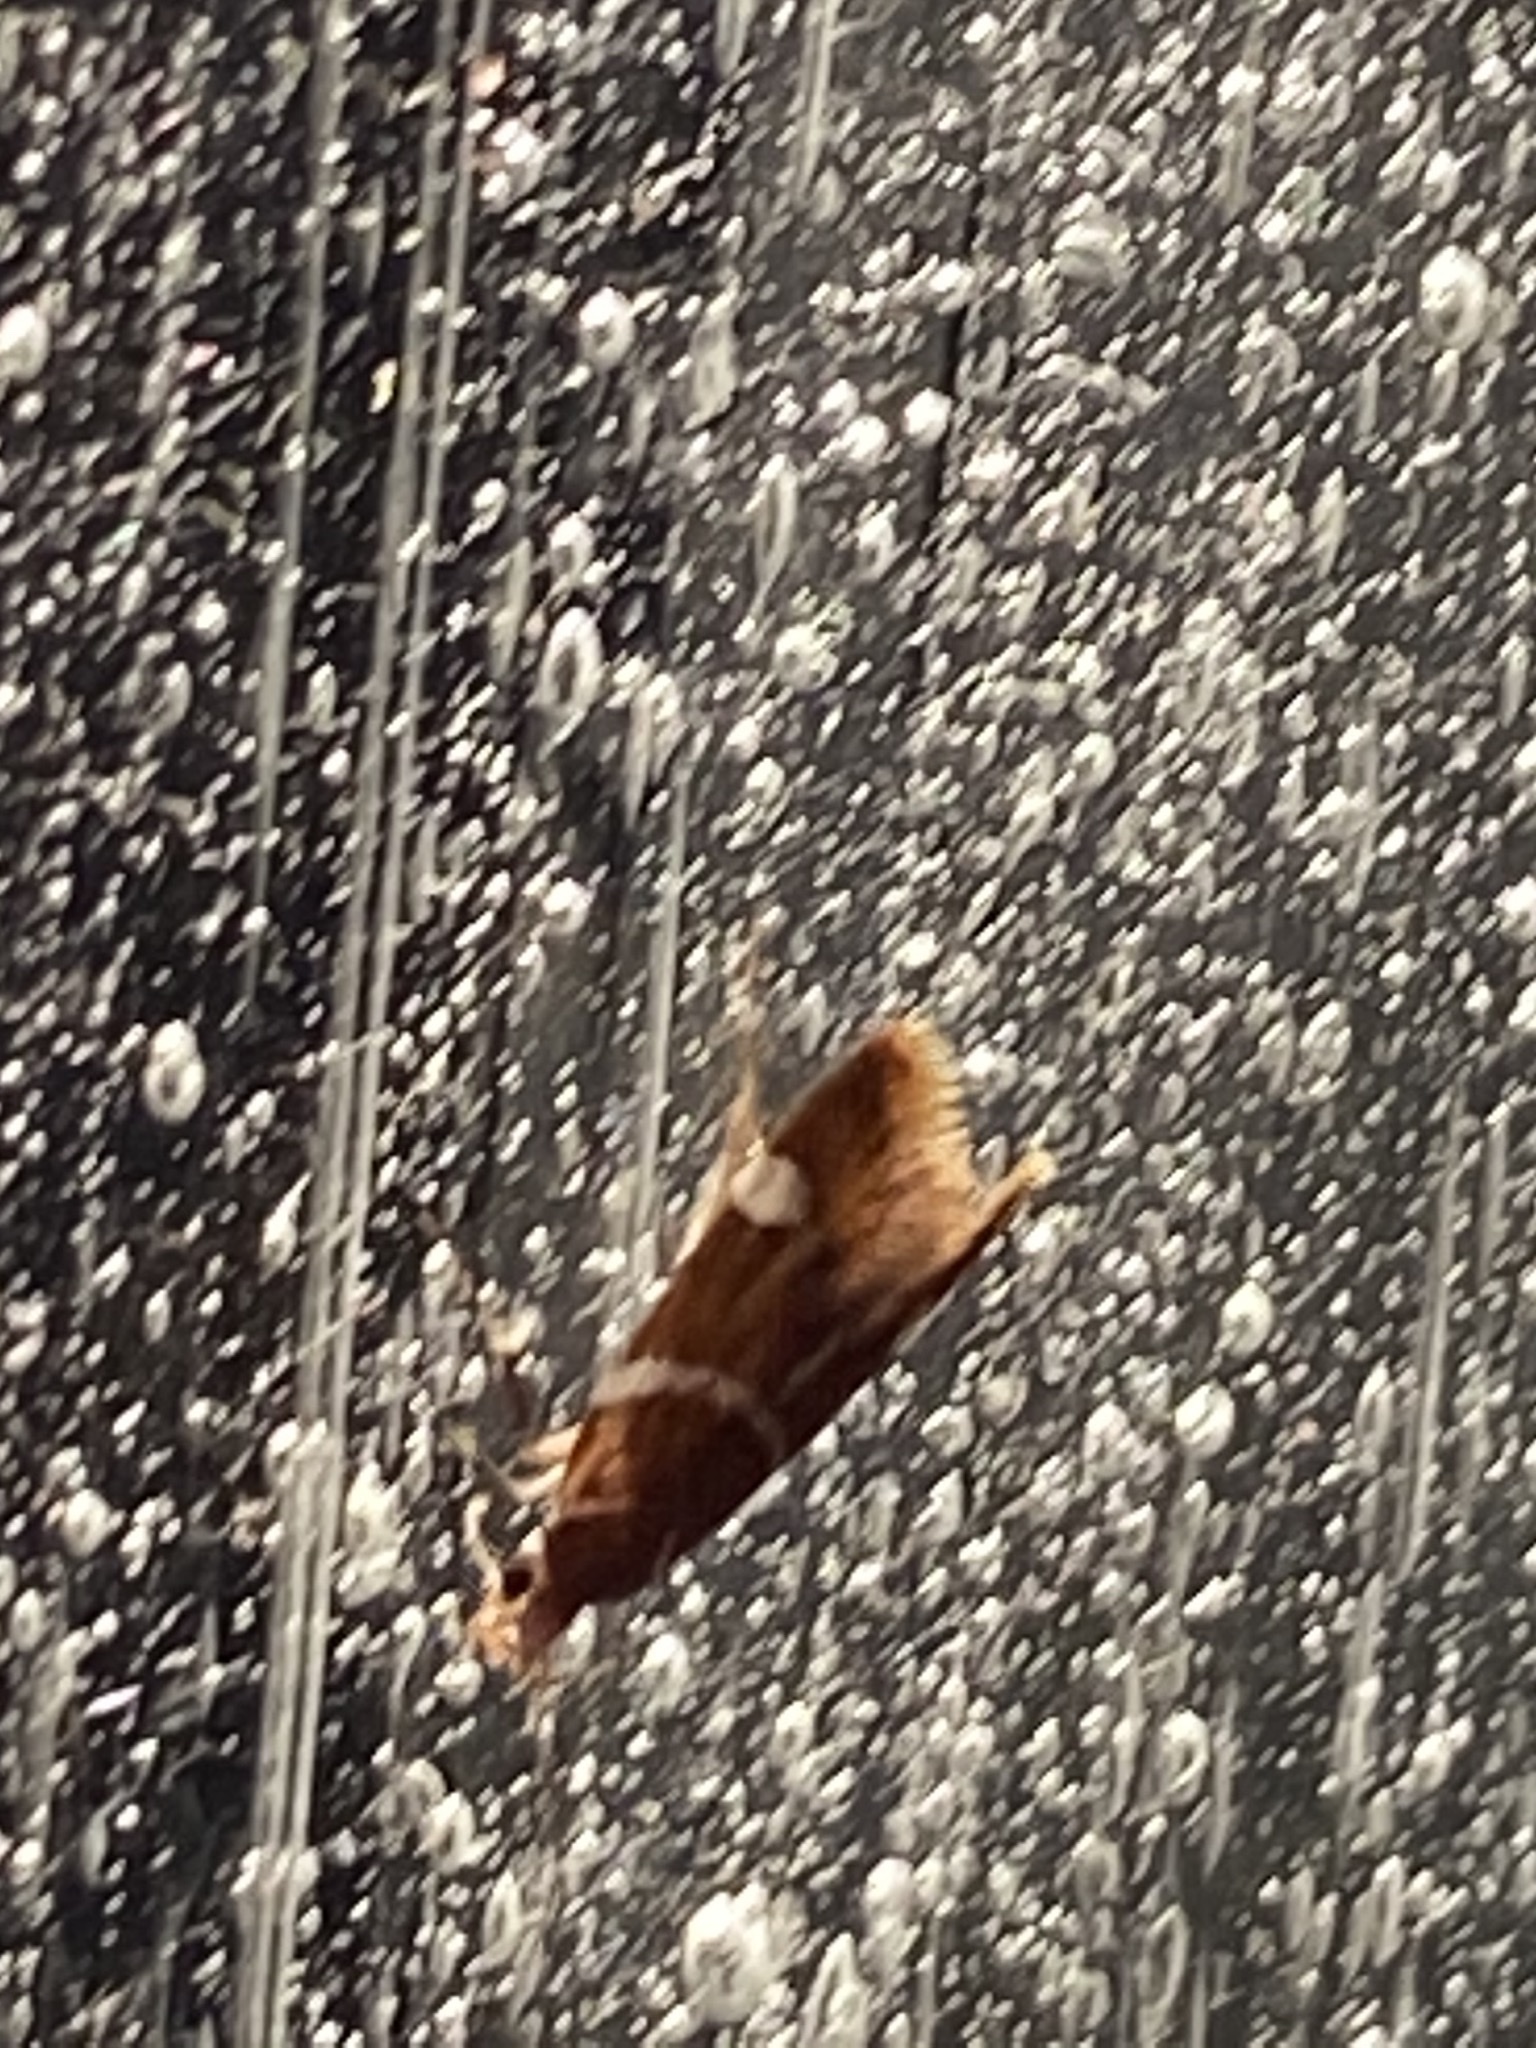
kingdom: Animalia
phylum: Arthropoda
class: Insecta
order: Lepidoptera
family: Oecophoridae
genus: Promalactis
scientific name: Promalactis suzukiella
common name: Moth
